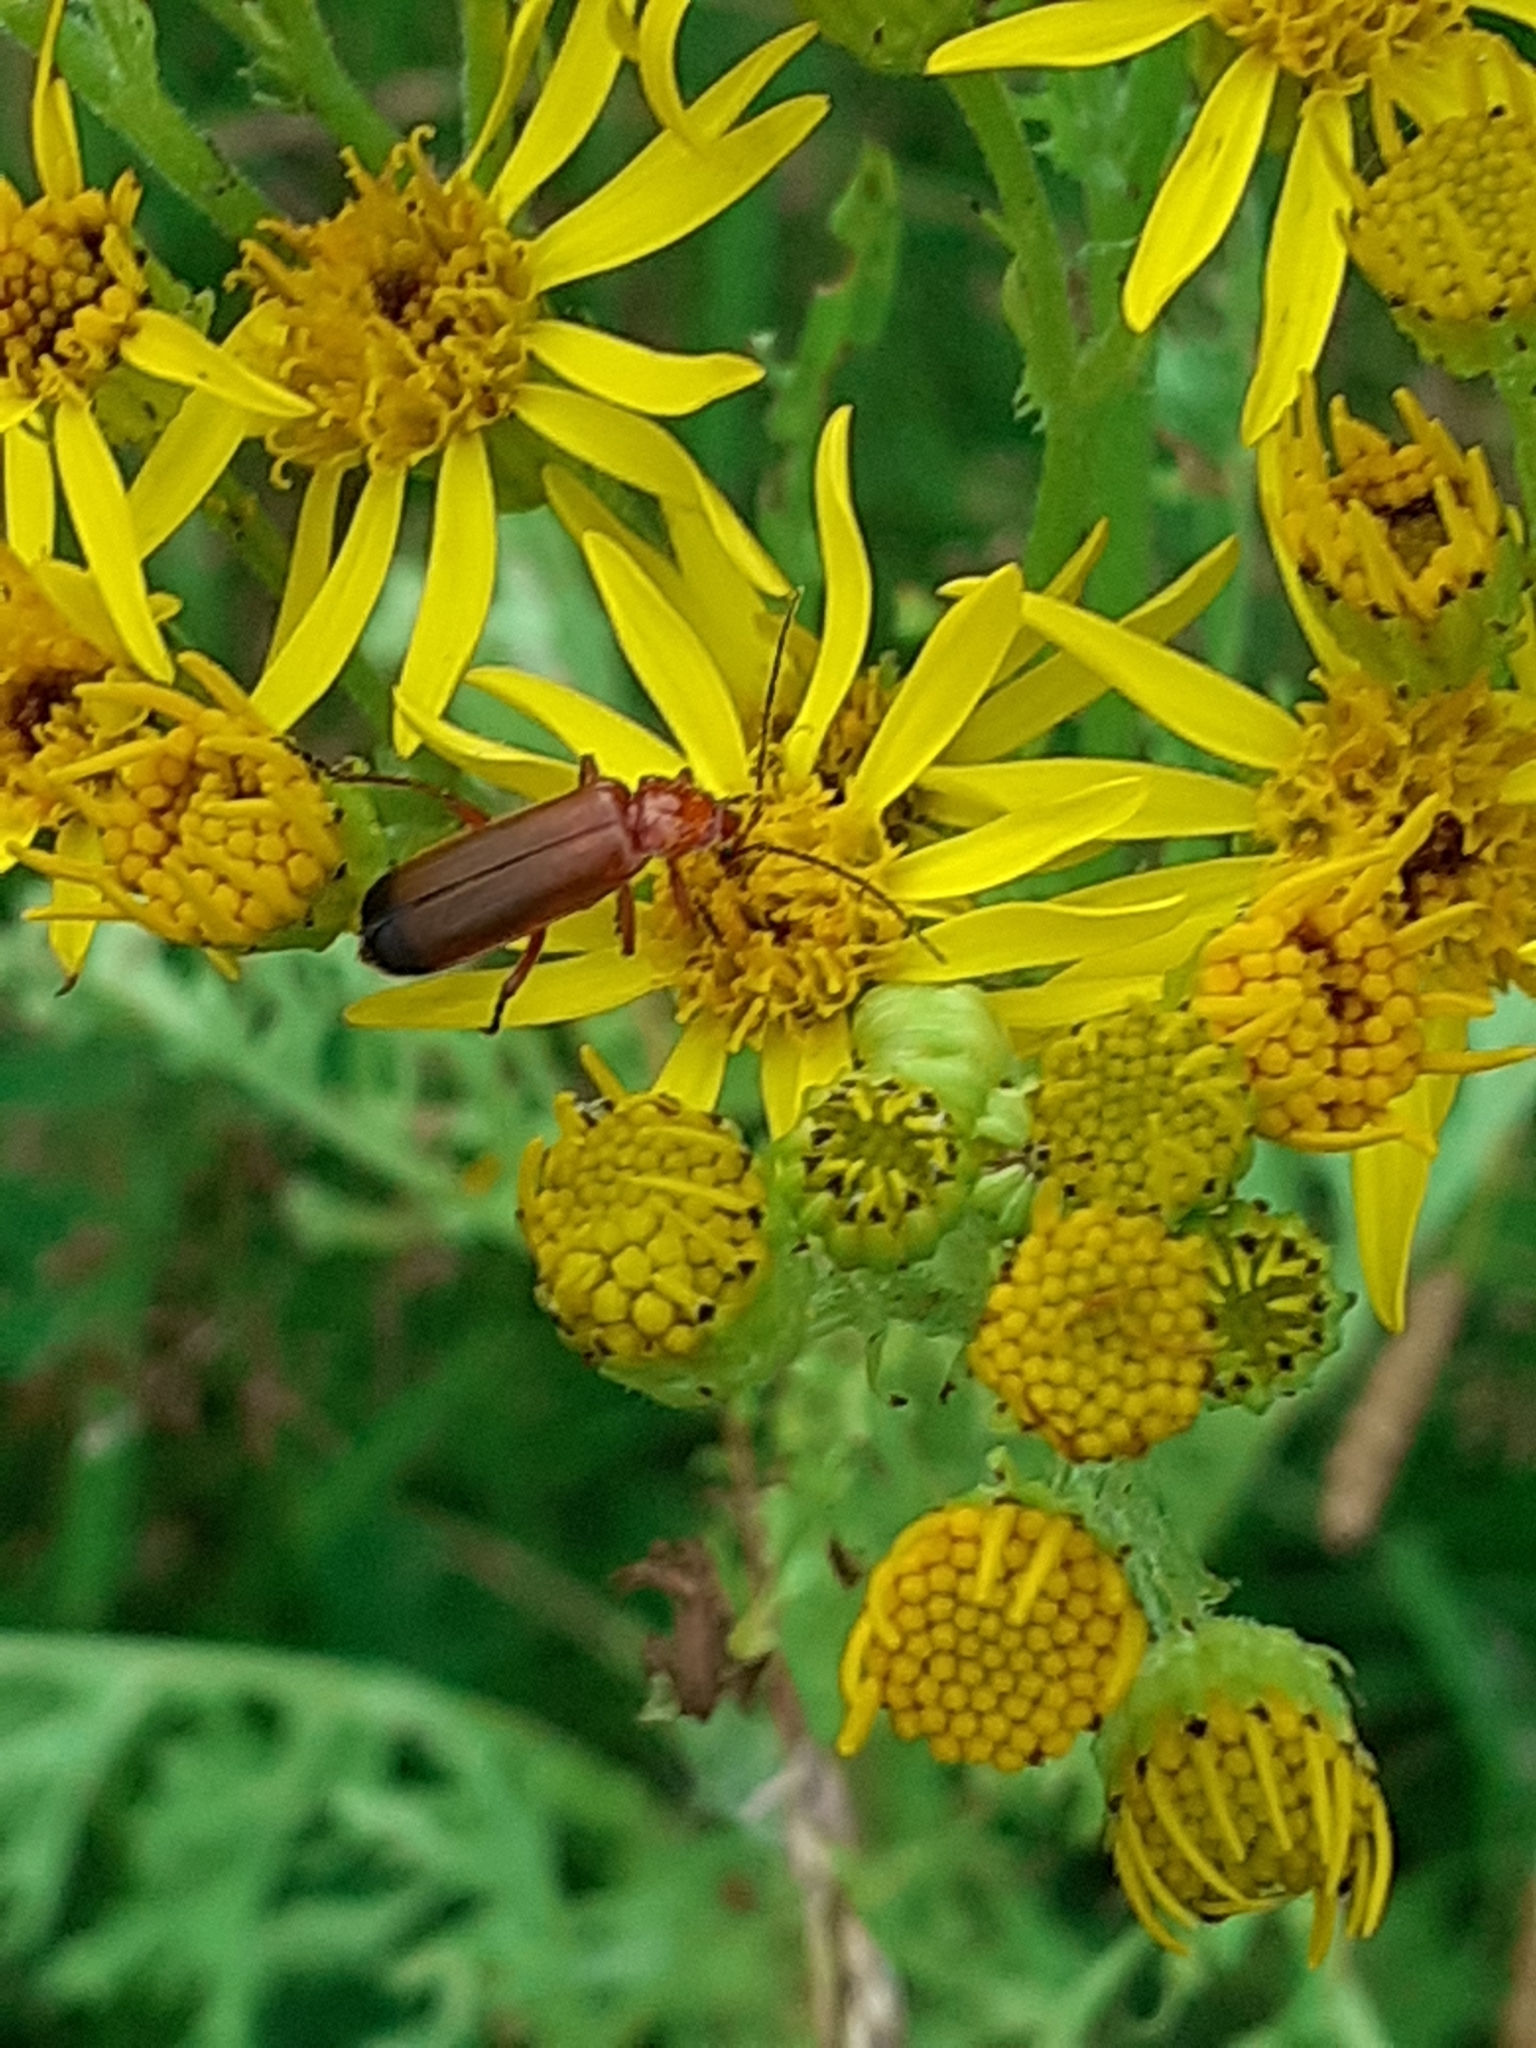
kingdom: Animalia
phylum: Arthropoda
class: Insecta
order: Coleoptera
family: Cantharidae
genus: Rhagonycha
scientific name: Rhagonycha fulva
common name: Common red soldier beetle
